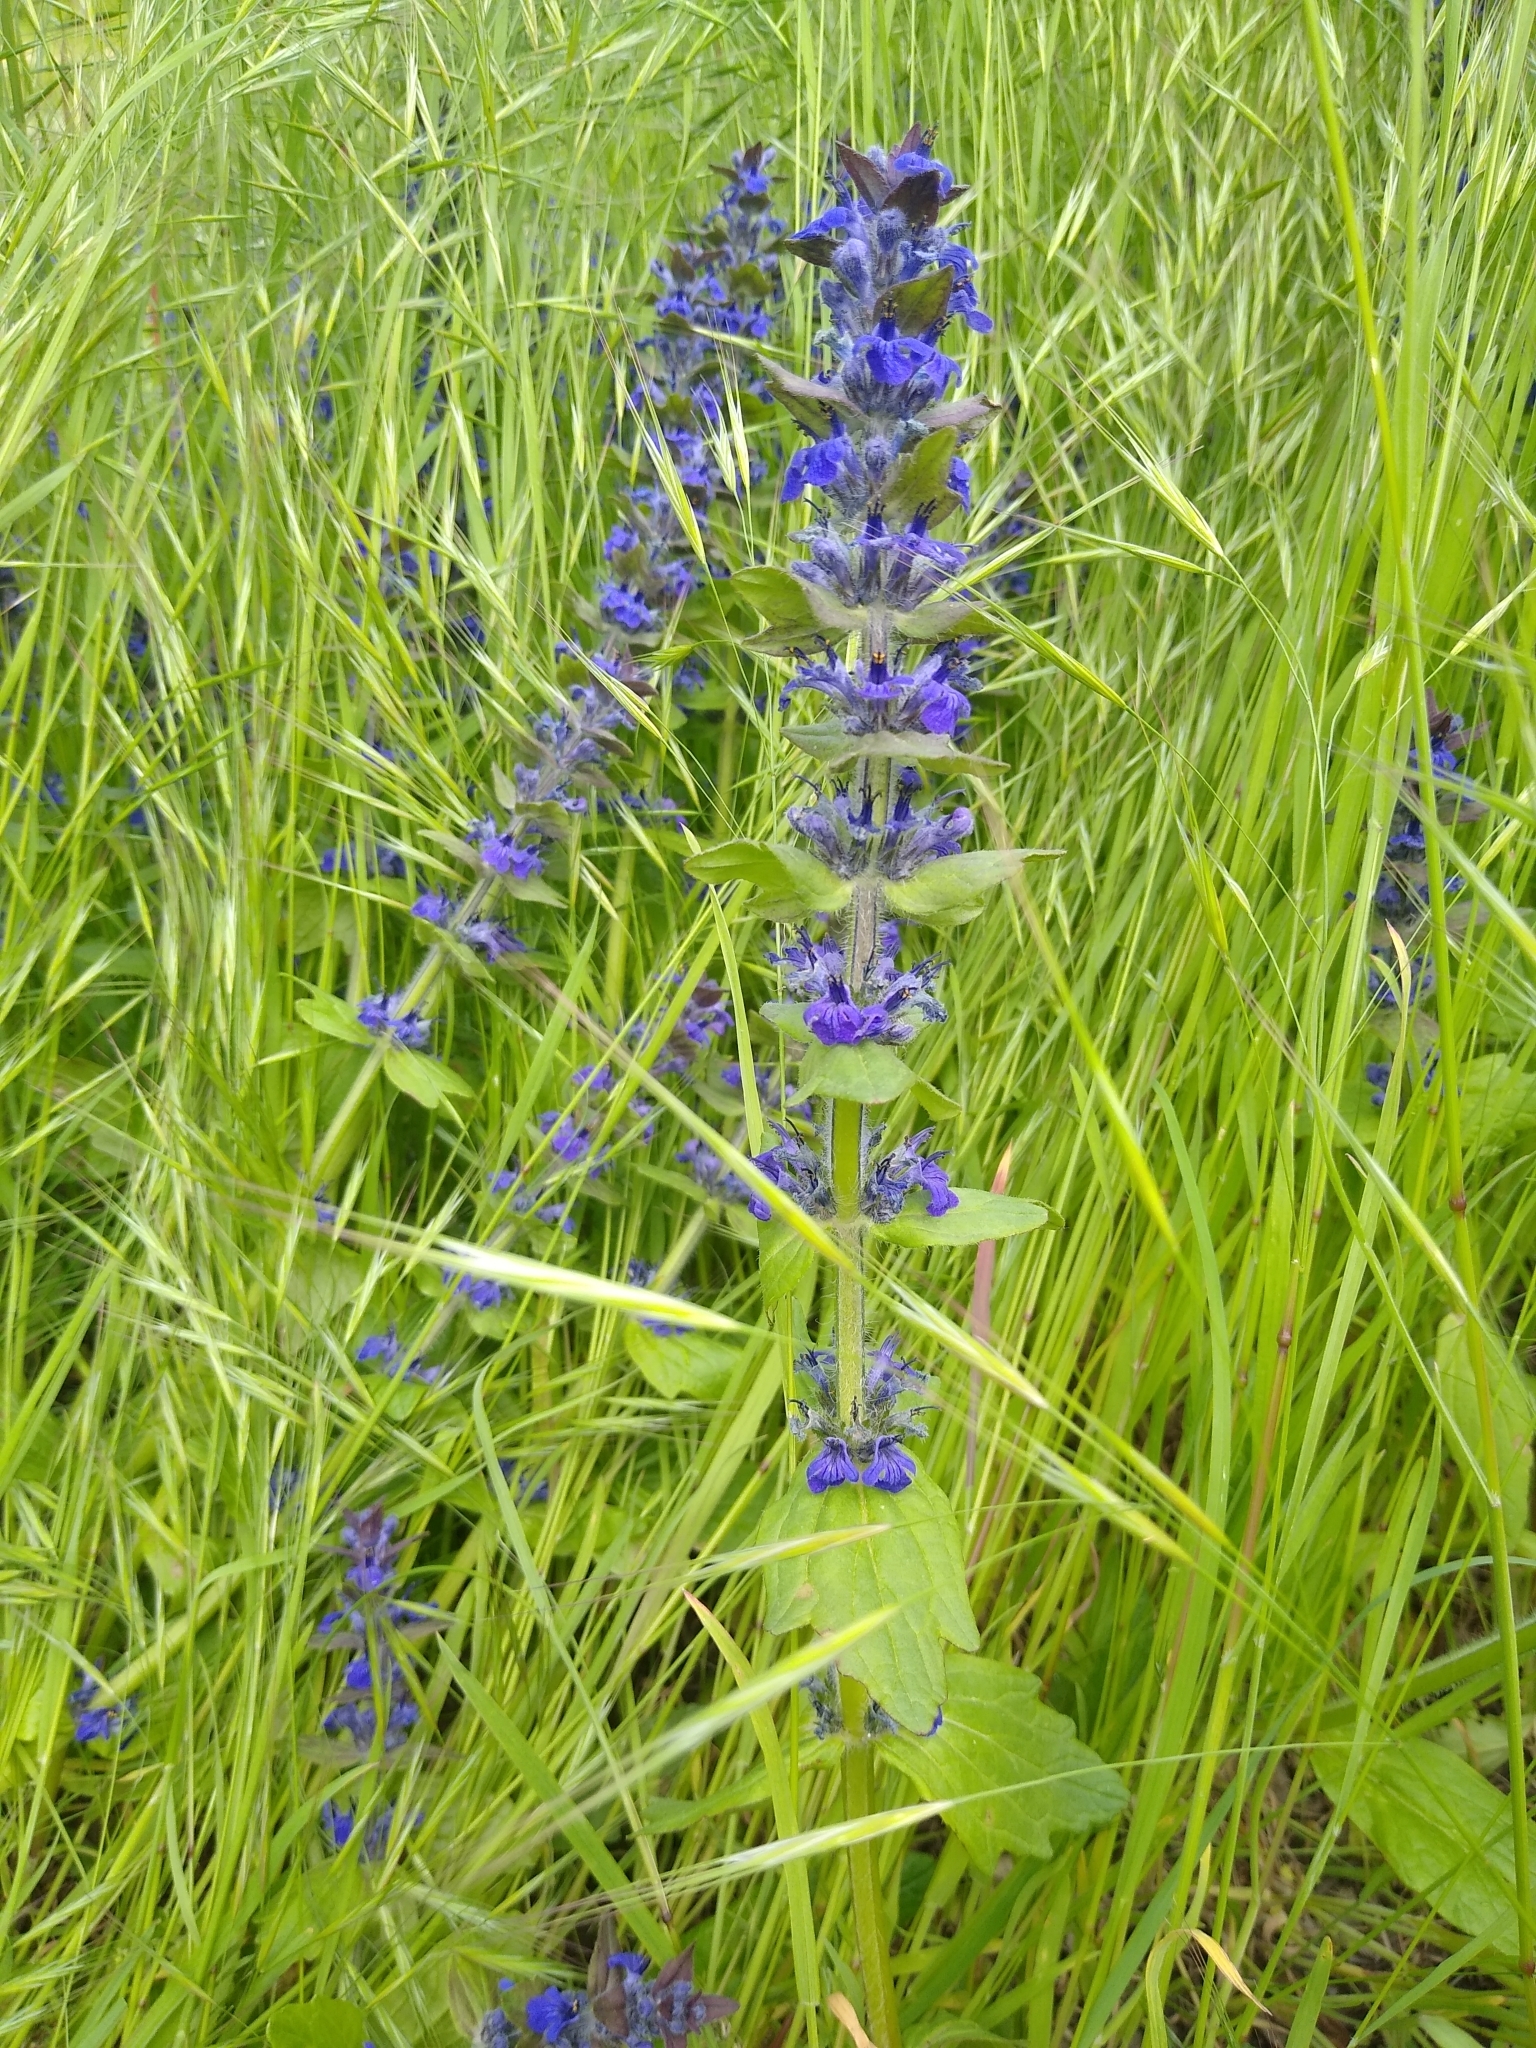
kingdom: Plantae
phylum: Tracheophyta
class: Magnoliopsida
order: Lamiales
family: Lamiaceae
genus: Ajuga
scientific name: Ajuga genevensis
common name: Blue bugle
